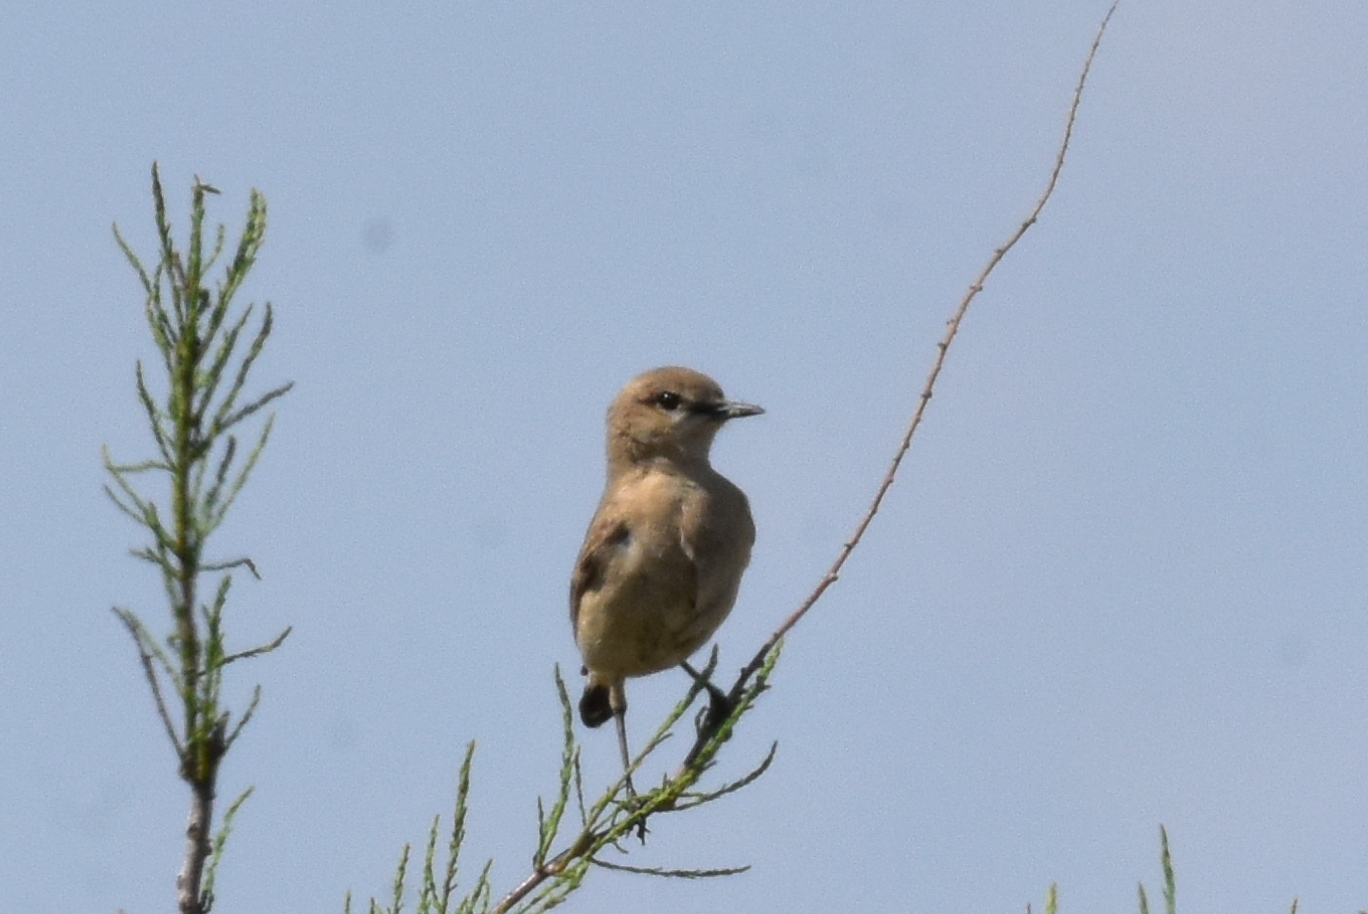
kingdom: Animalia
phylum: Chordata
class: Aves
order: Passeriformes
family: Muscicapidae
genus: Oenanthe
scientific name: Oenanthe isabellina
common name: Isabelline wheatear
